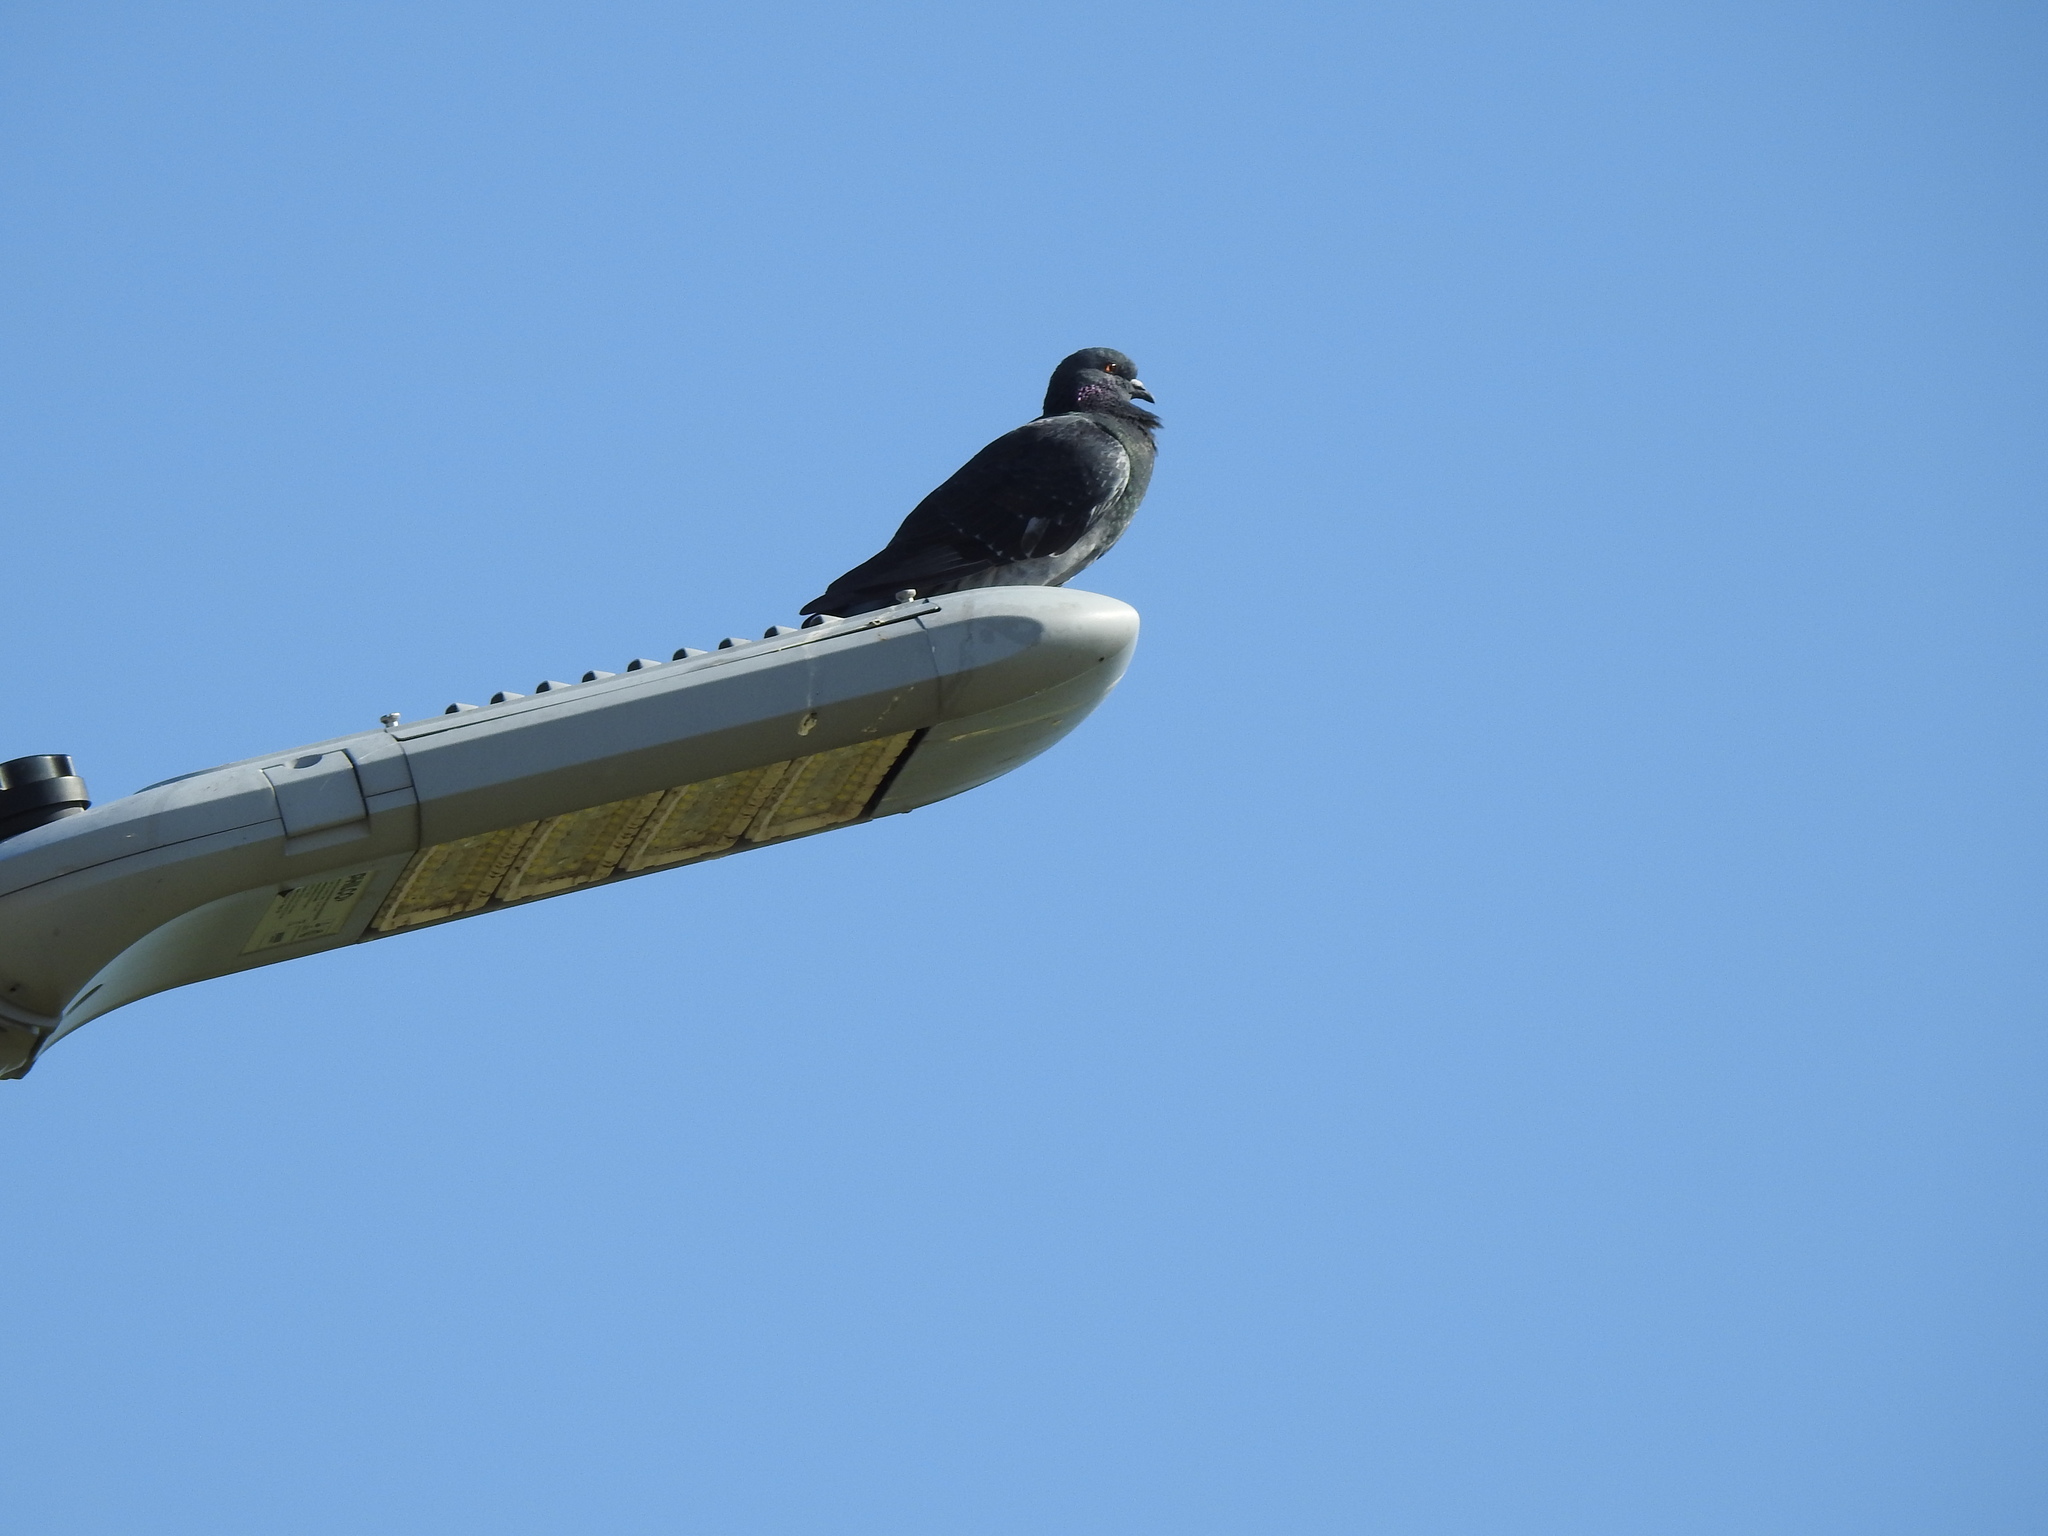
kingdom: Animalia
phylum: Chordata
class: Aves
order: Columbiformes
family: Columbidae
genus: Columba
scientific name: Columba livia
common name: Rock pigeon
